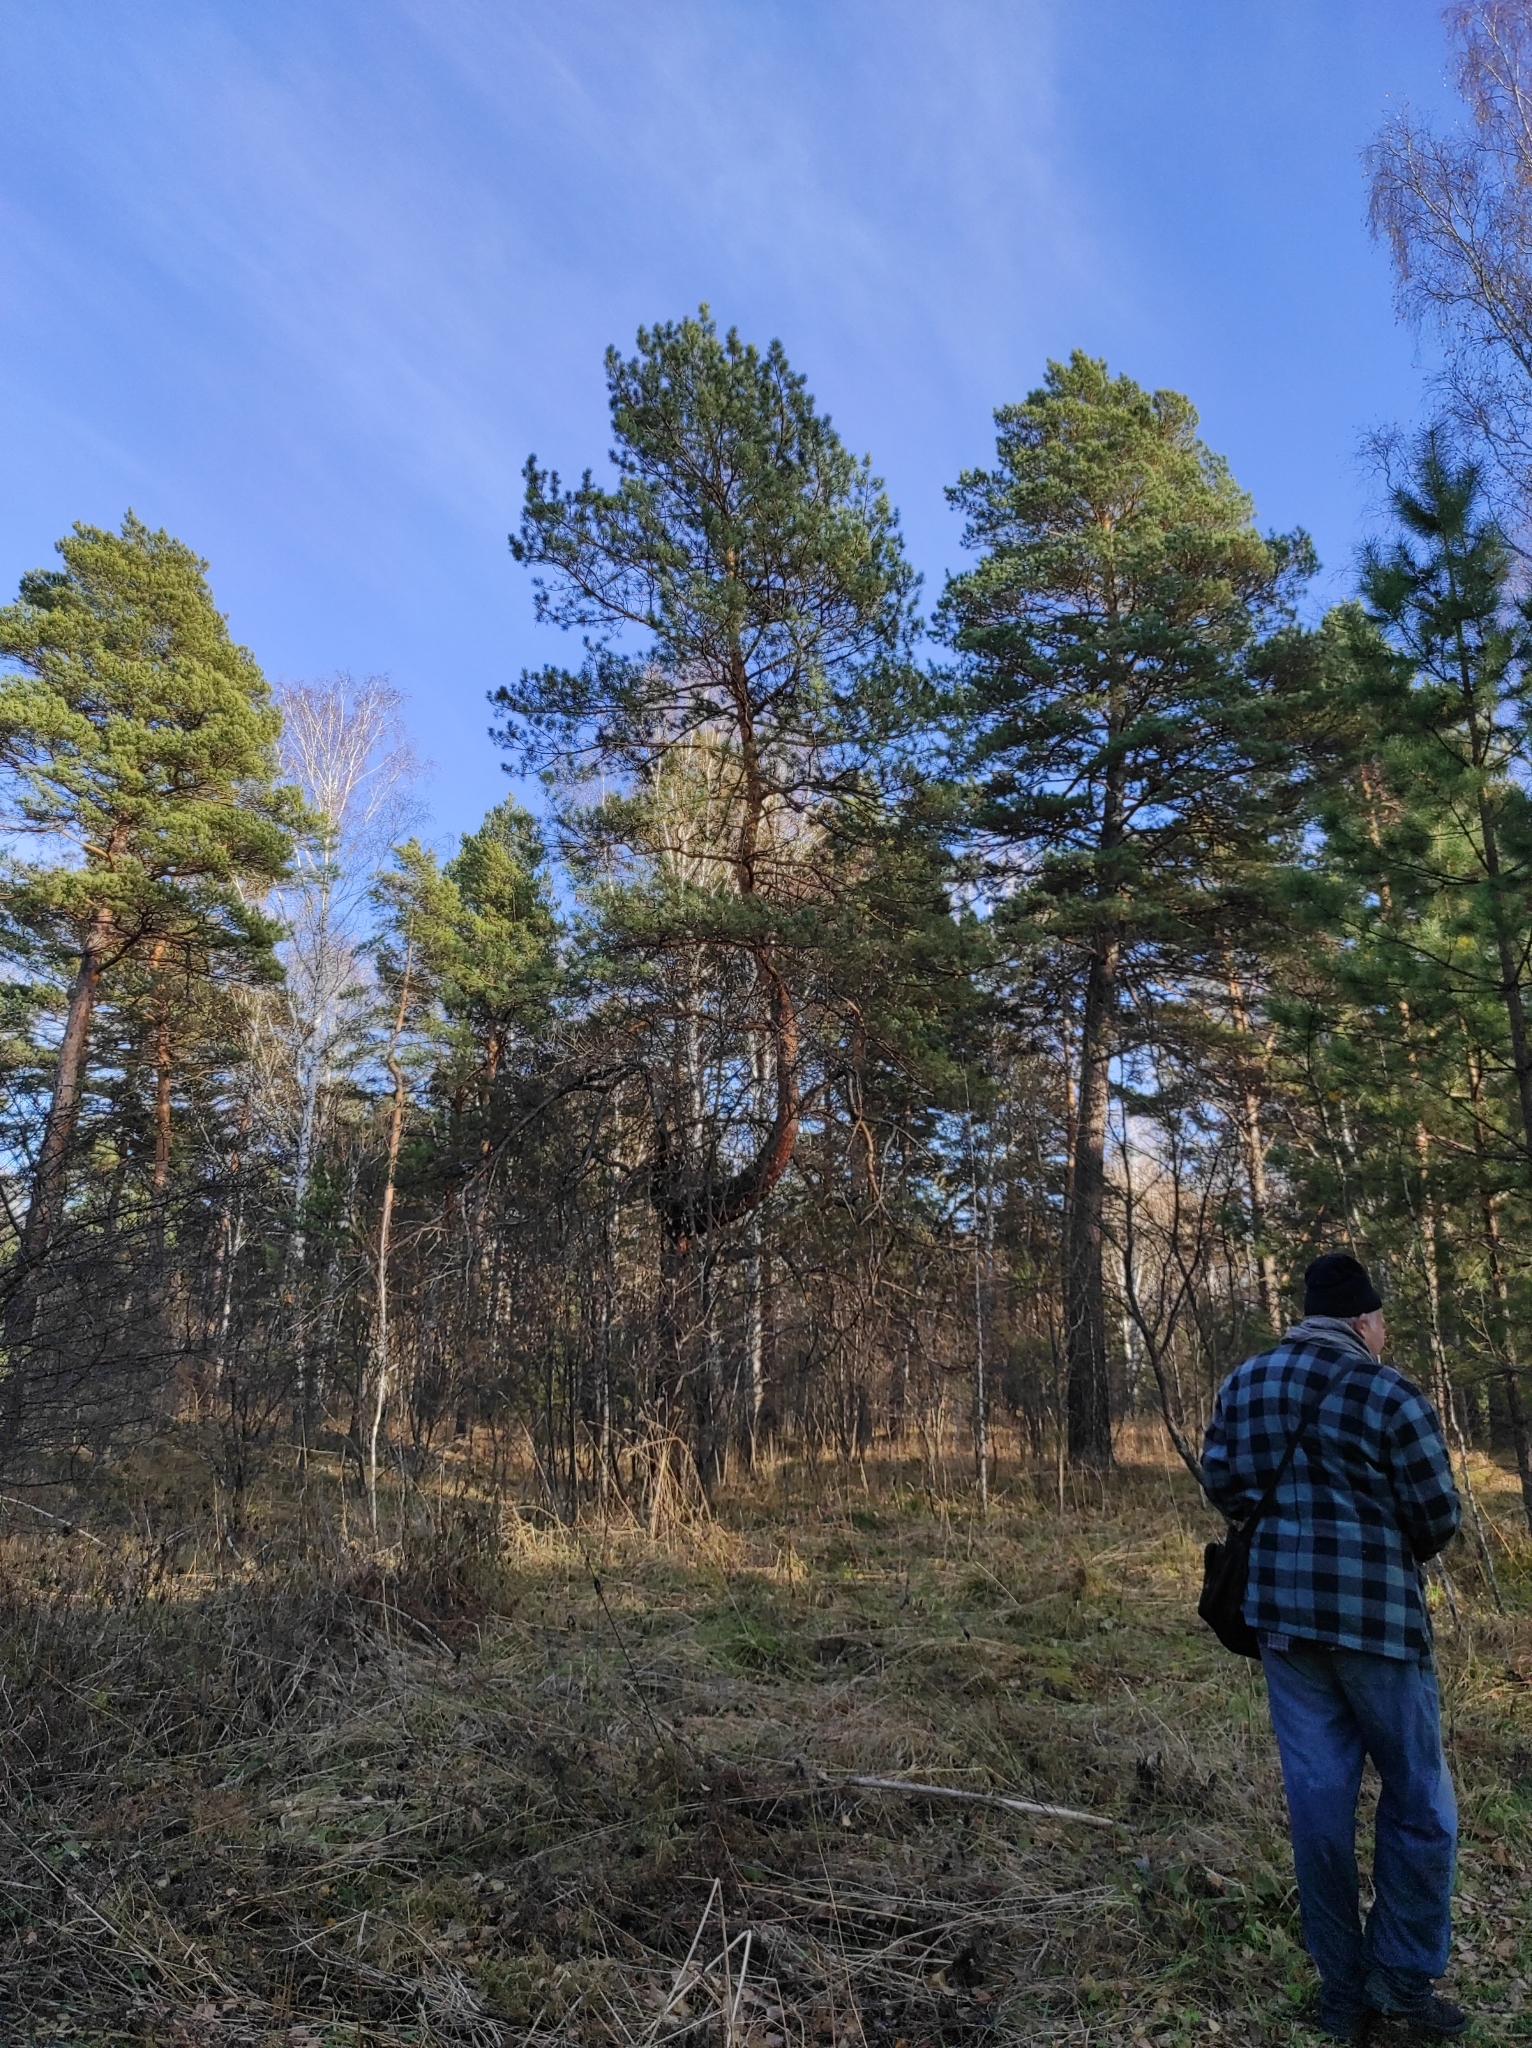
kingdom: Plantae
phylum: Tracheophyta
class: Pinopsida
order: Pinales
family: Pinaceae
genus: Pinus
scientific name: Pinus sylvestris
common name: Scots pine
